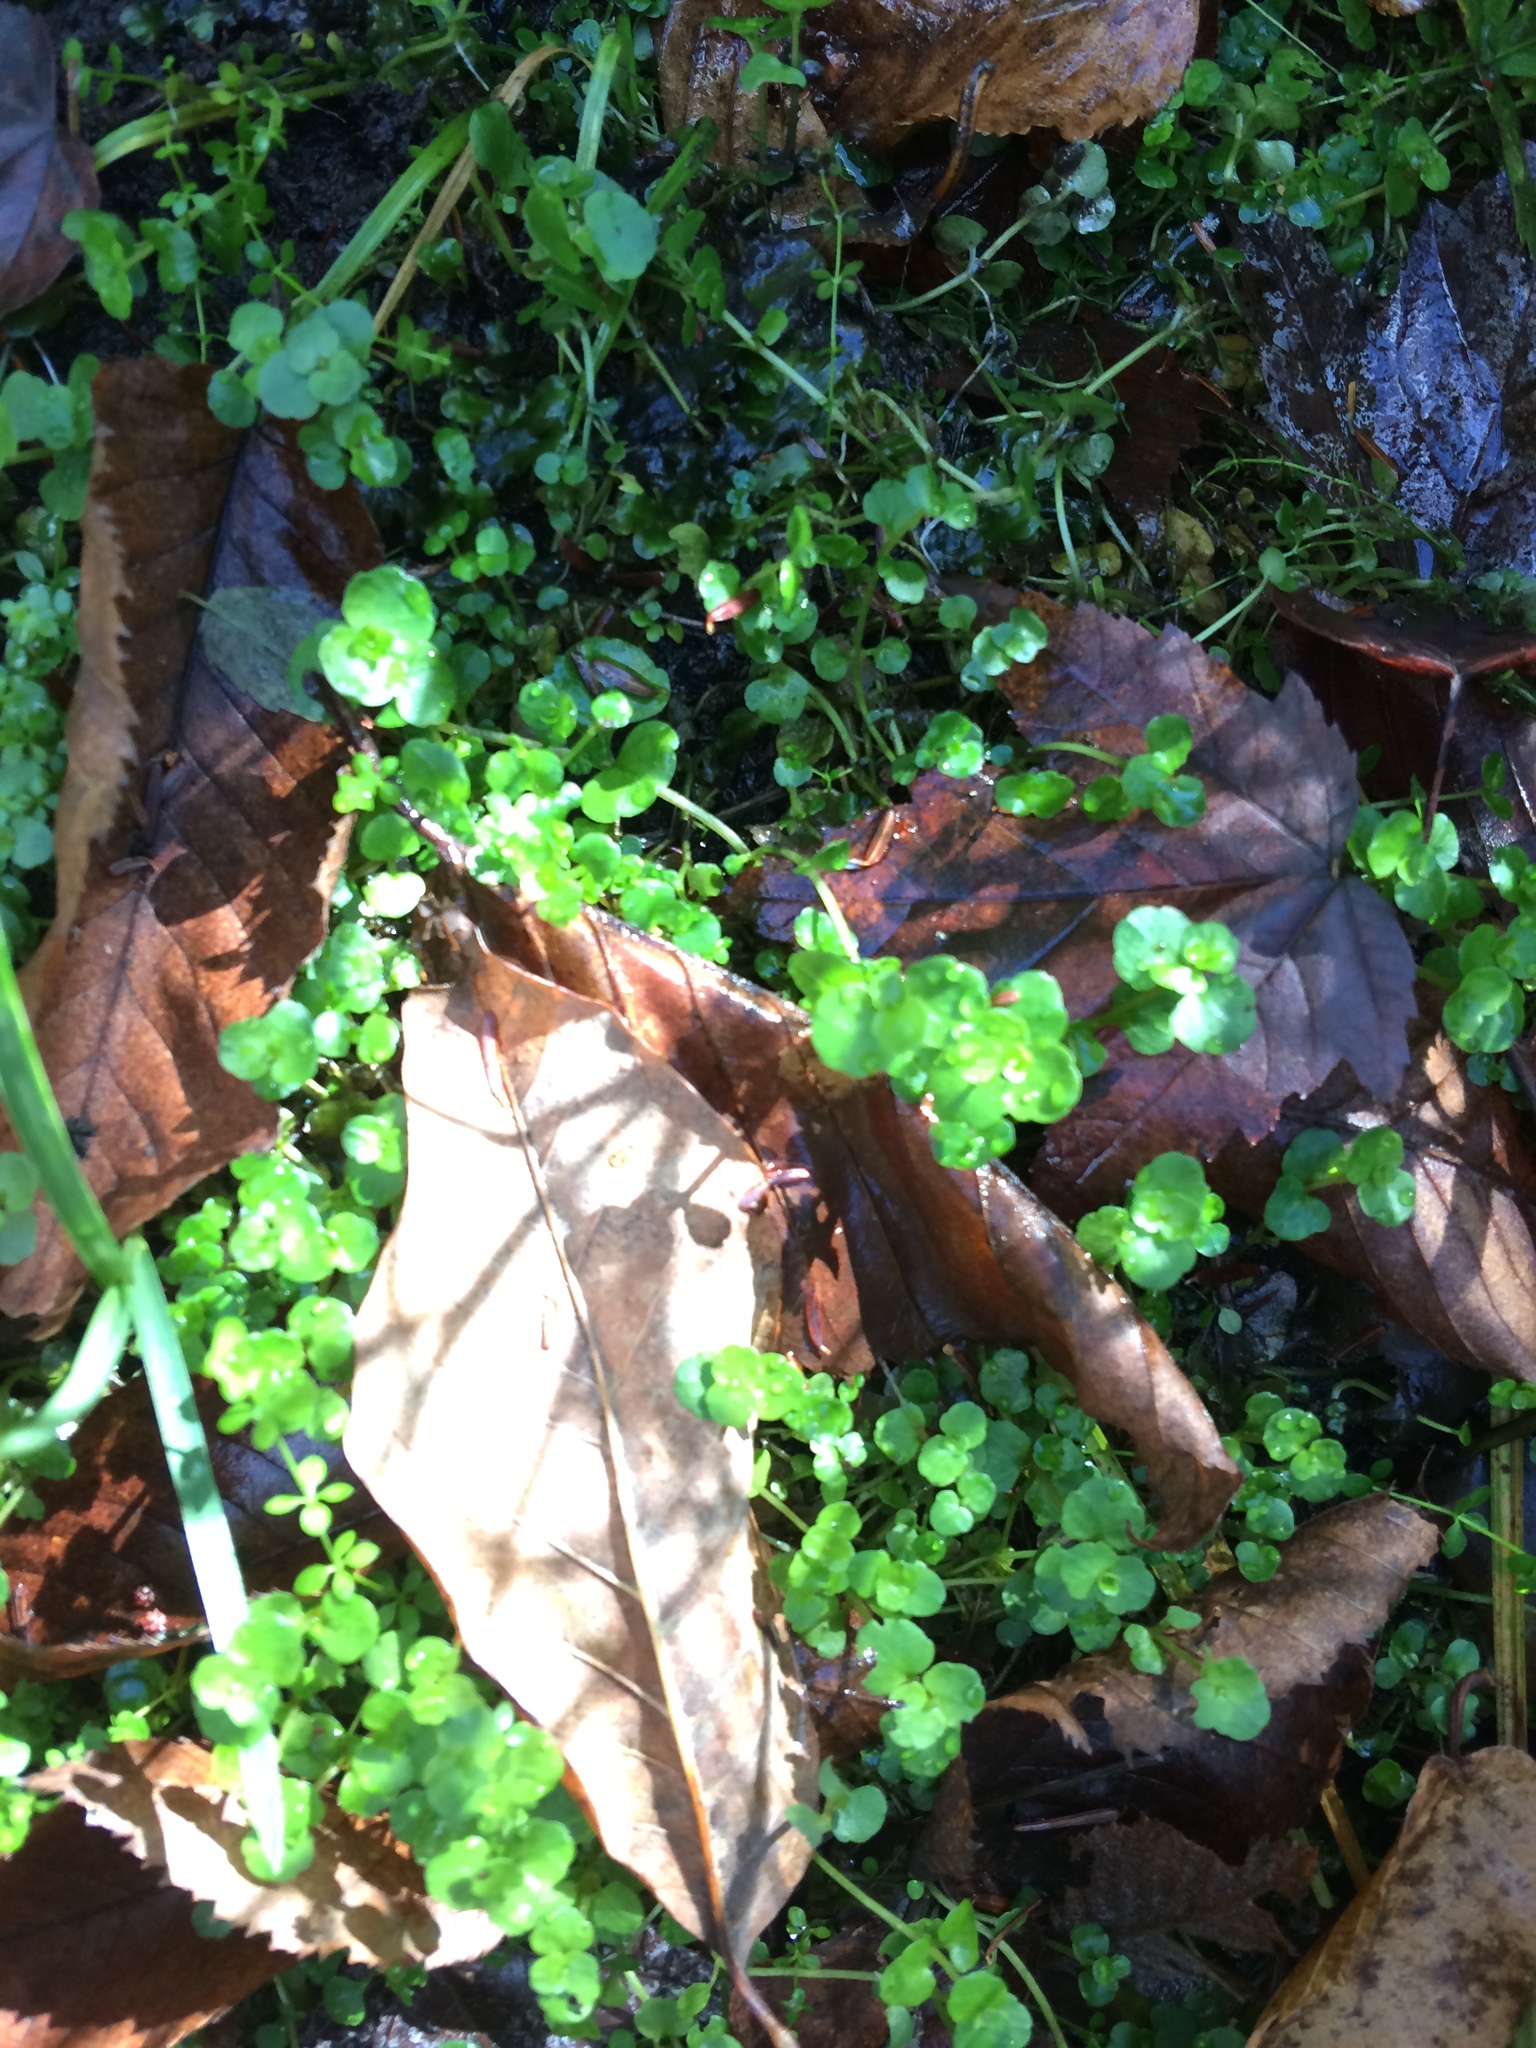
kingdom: Plantae
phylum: Tracheophyta
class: Magnoliopsida
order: Saxifragales
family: Saxifragaceae
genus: Chrysosplenium
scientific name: Chrysosplenium americanum
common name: American golden-saxifrage
